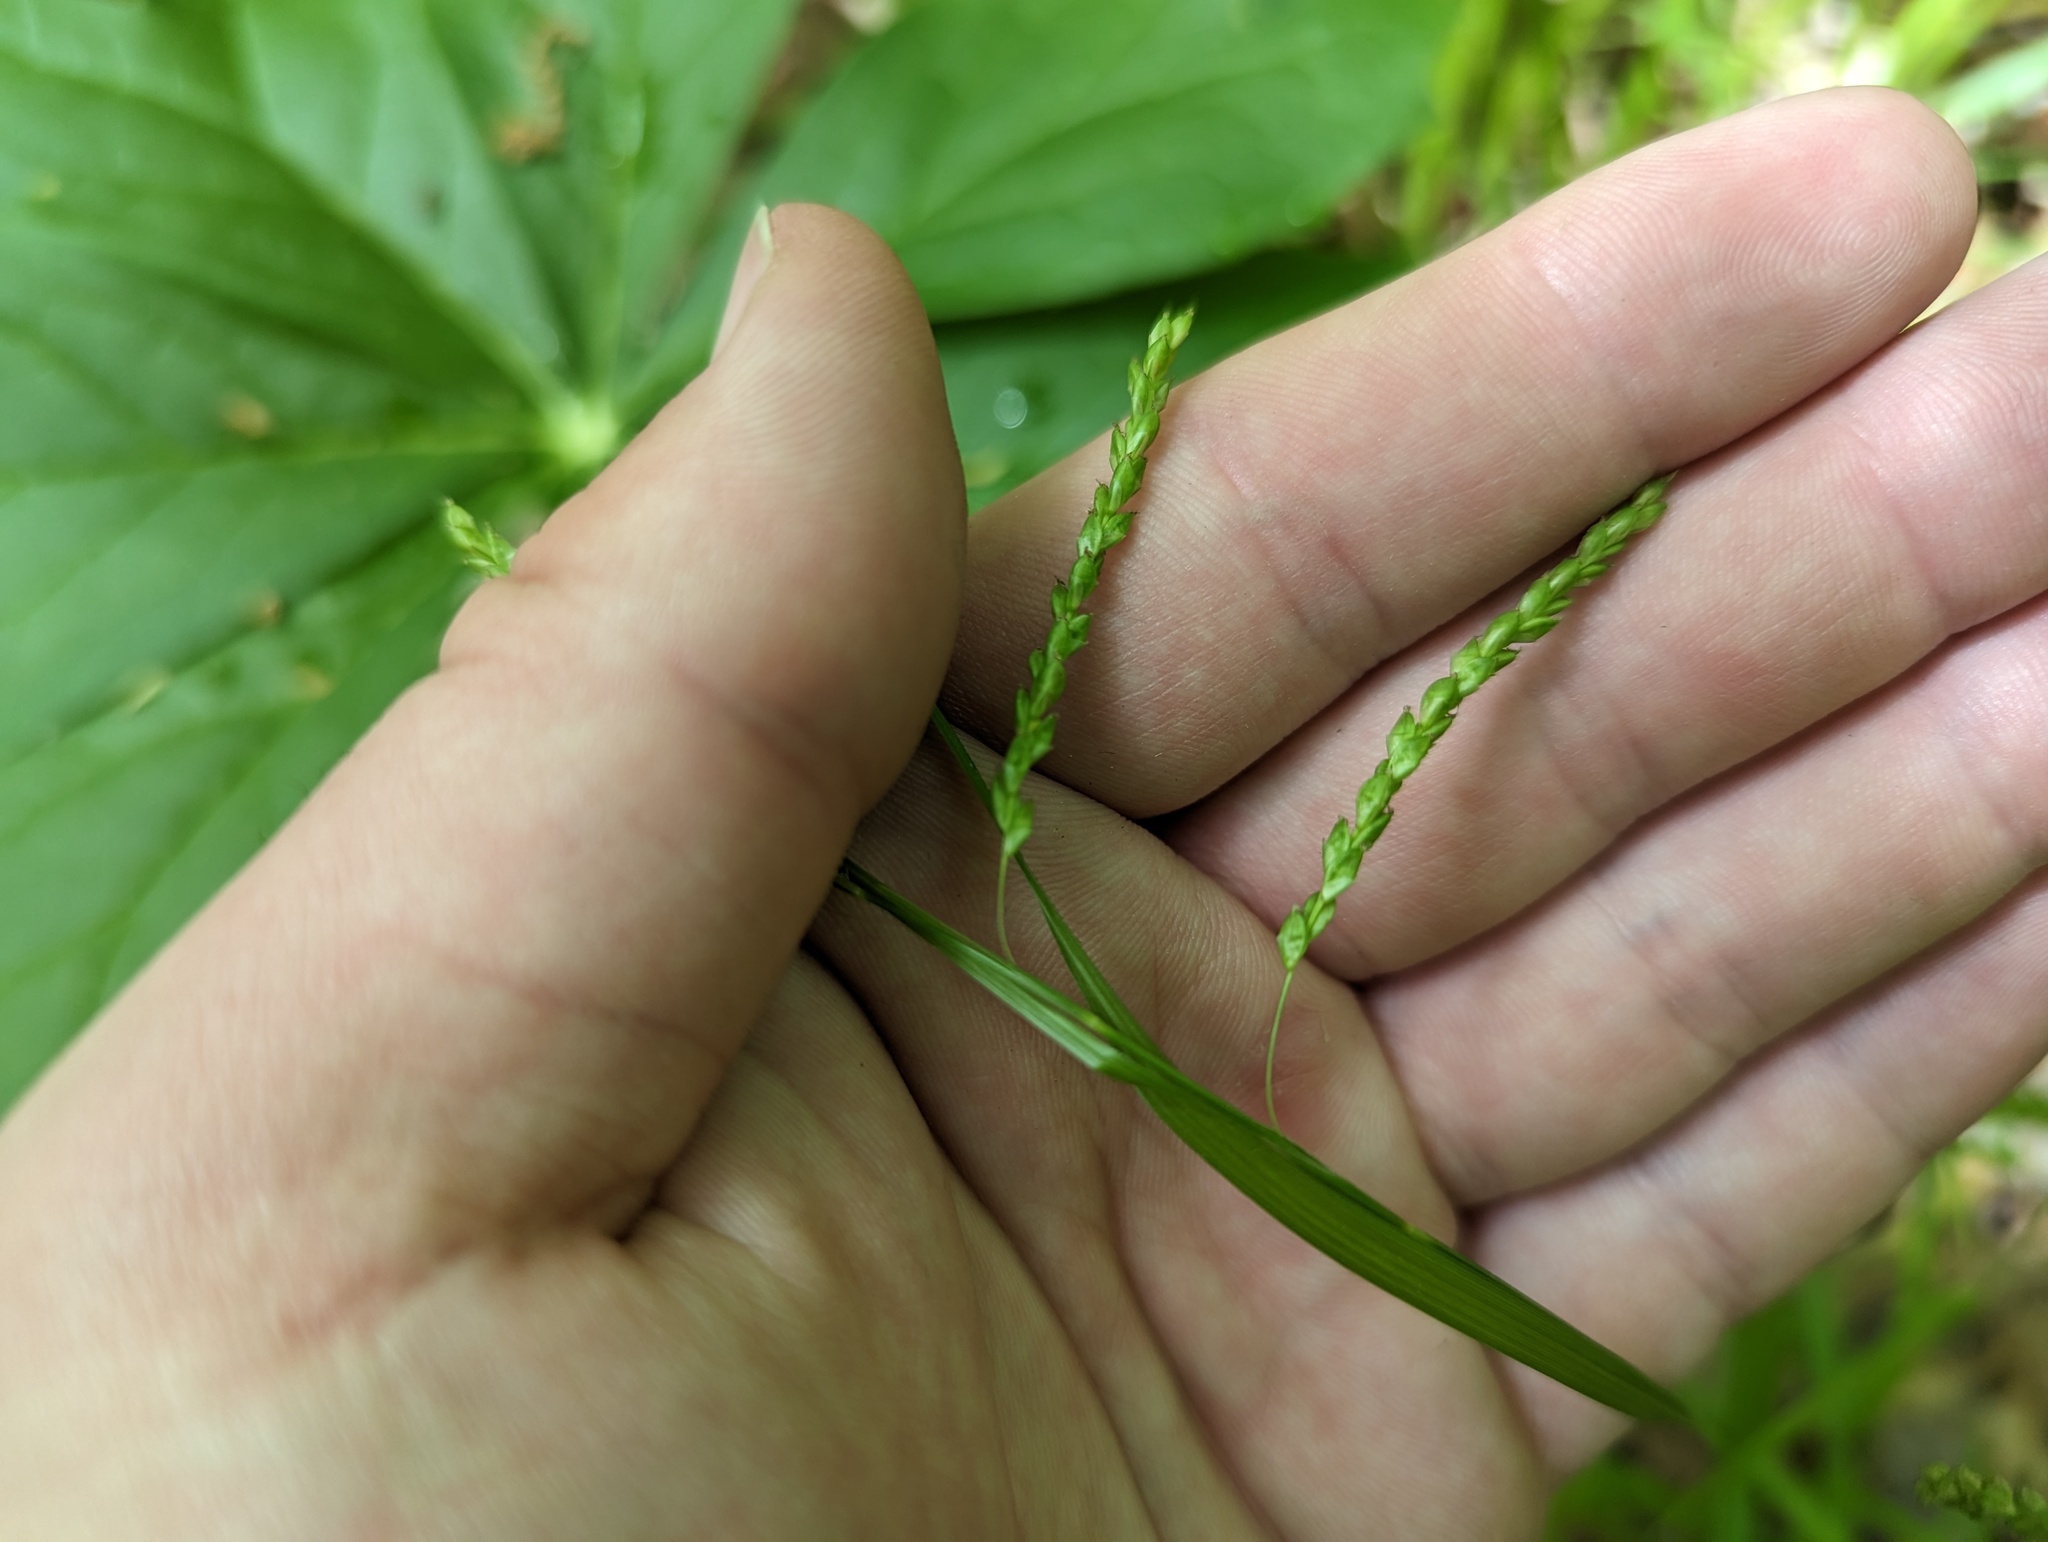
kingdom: Plantae
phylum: Tracheophyta
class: Liliopsida
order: Poales
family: Cyperaceae
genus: Carex
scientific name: Carex oxylepis
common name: Sharpscale sedge
